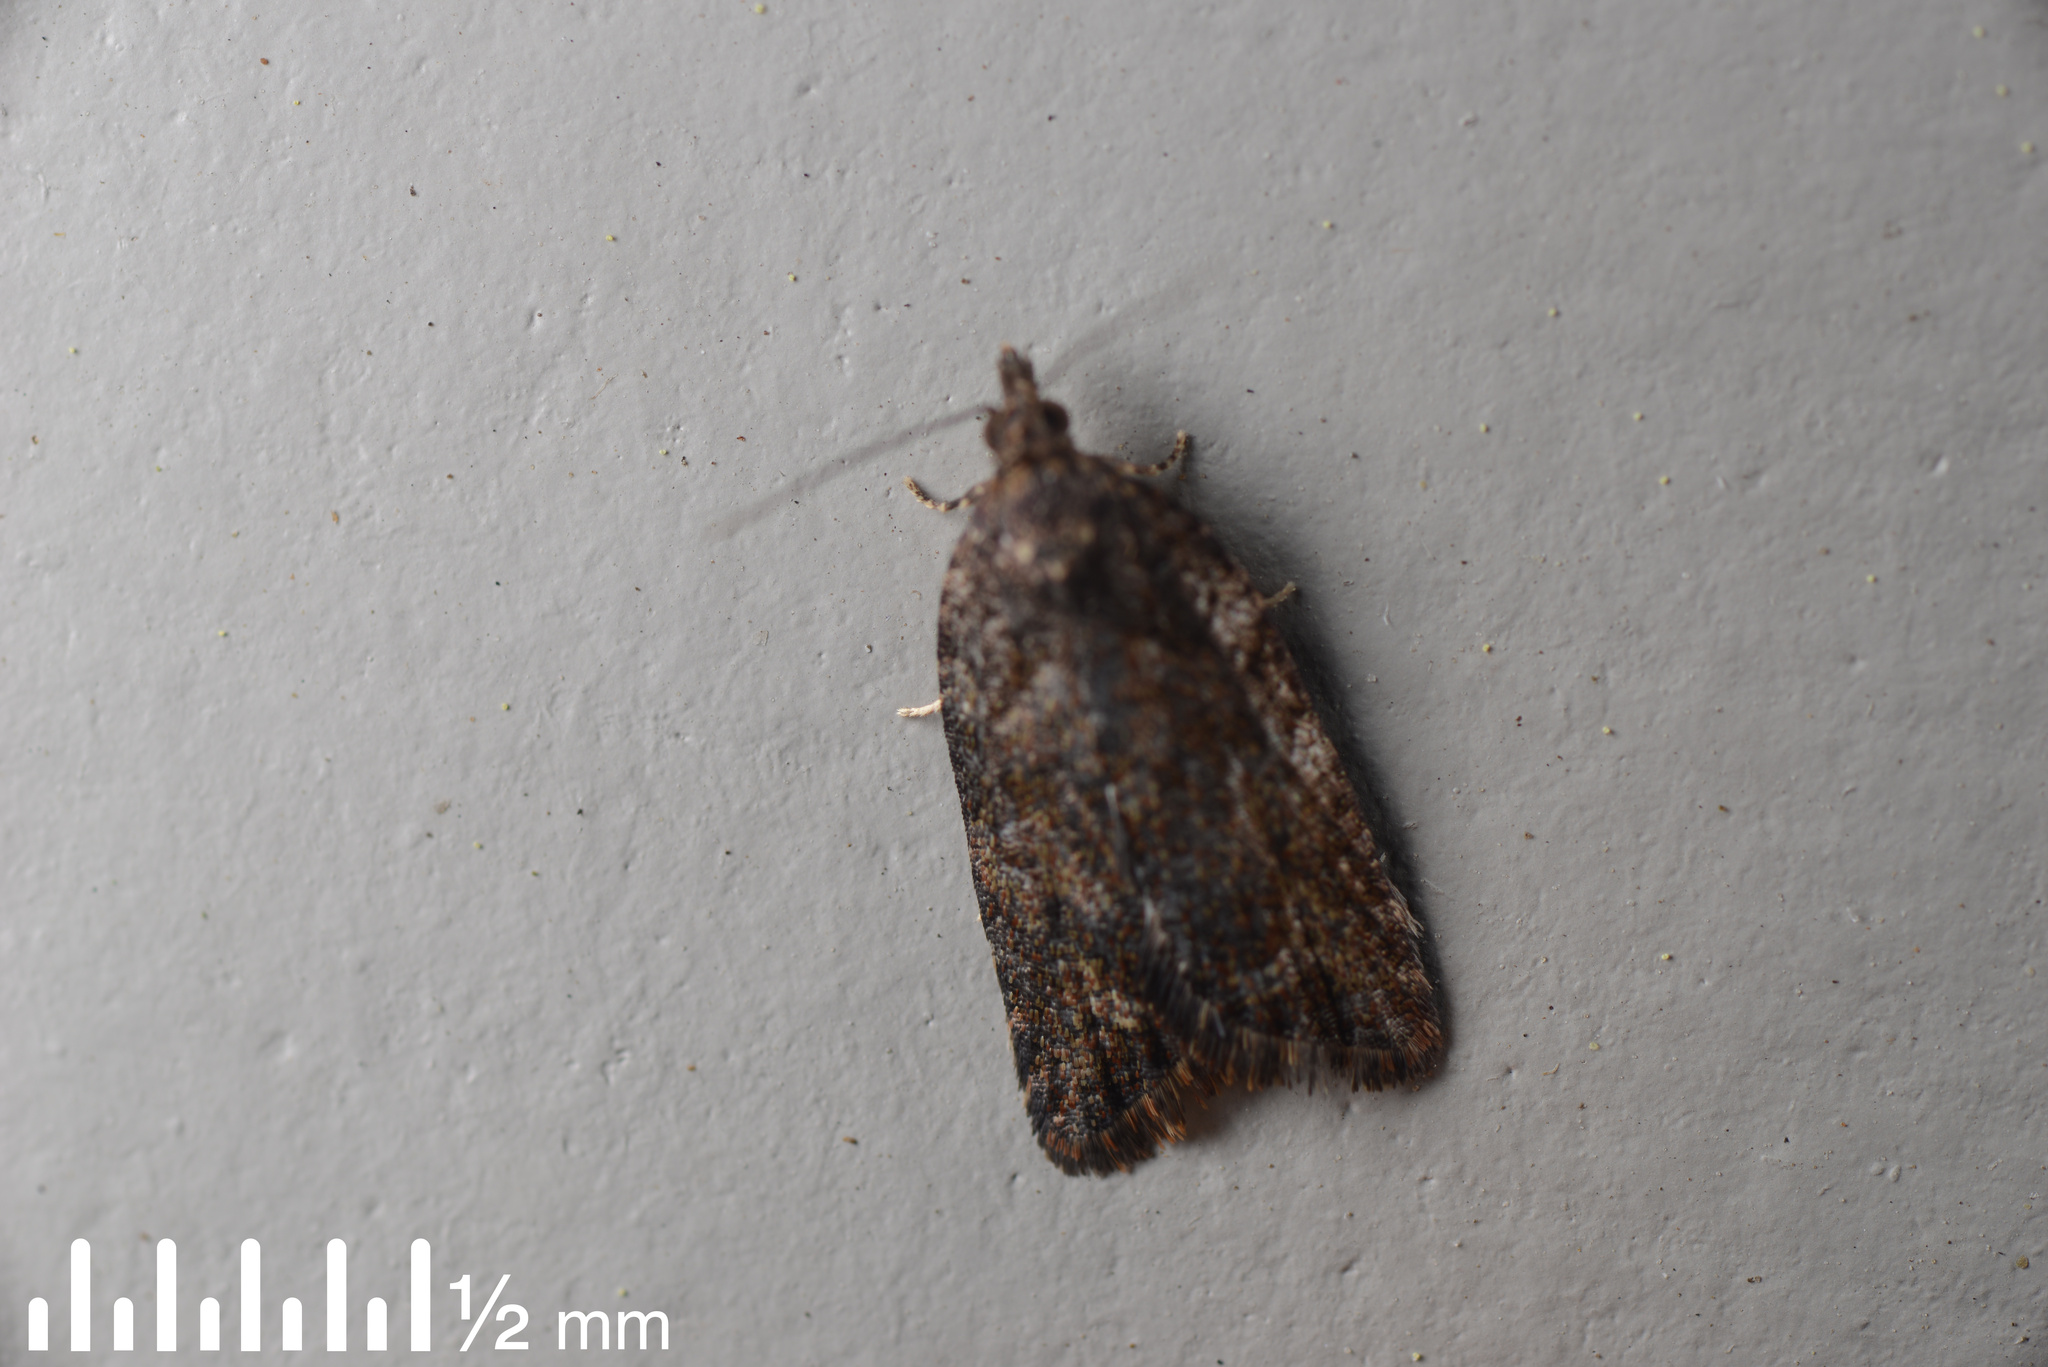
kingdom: Animalia
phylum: Arthropoda
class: Insecta
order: Lepidoptera
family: Tortricidae
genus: Capua
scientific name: Capua intractana
